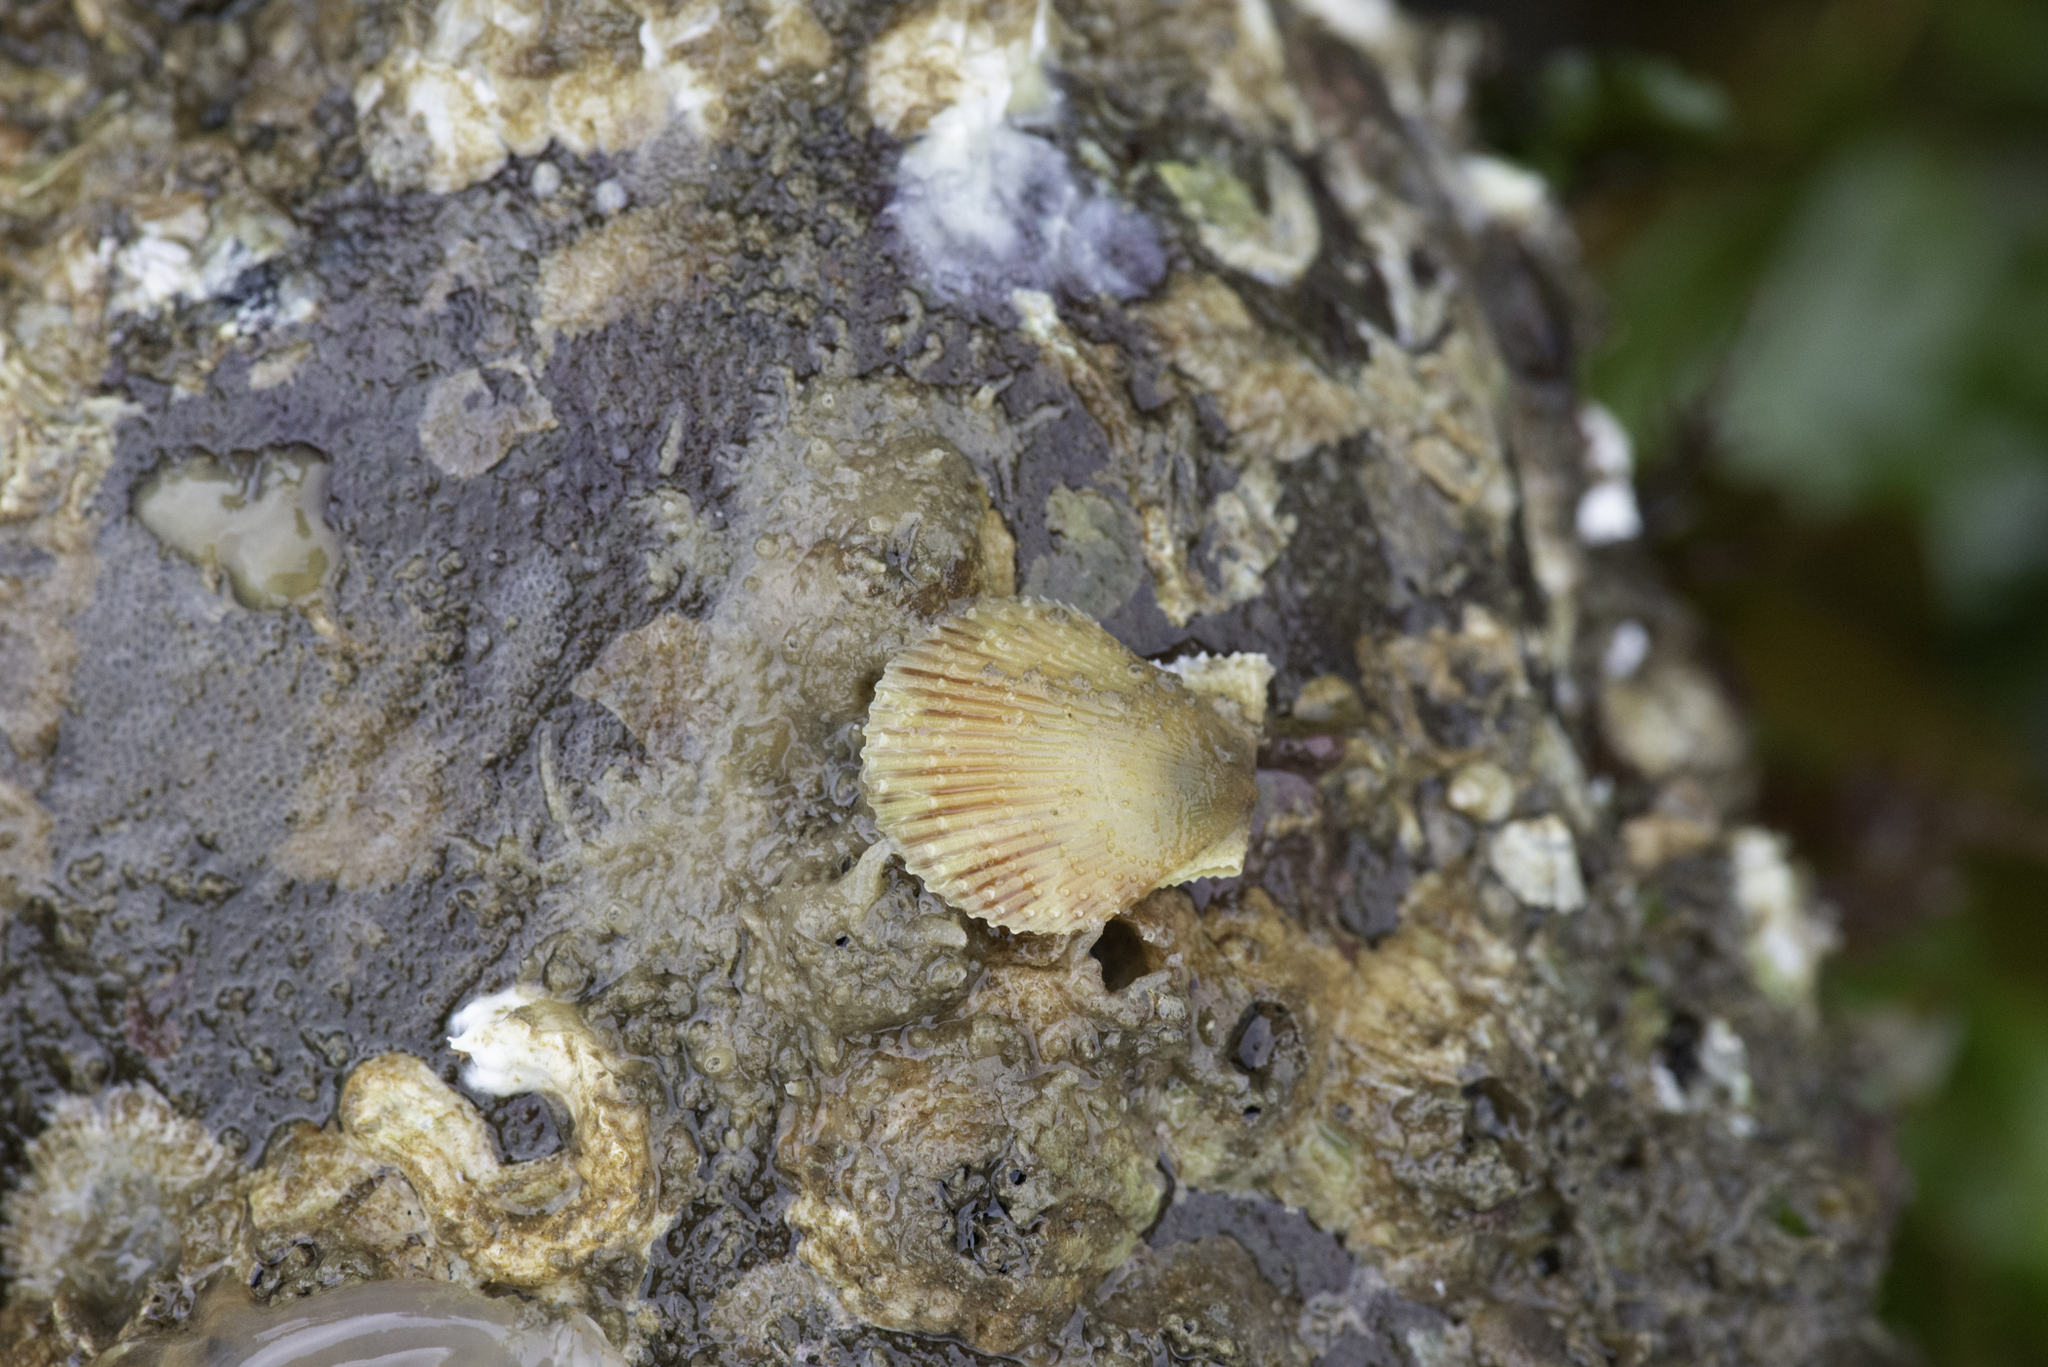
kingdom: Animalia
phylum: Mollusca
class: Bivalvia
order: Pectinida
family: Pectinidae
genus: Mimachlamys
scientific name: Mimachlamys varia
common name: Variegated scallop
